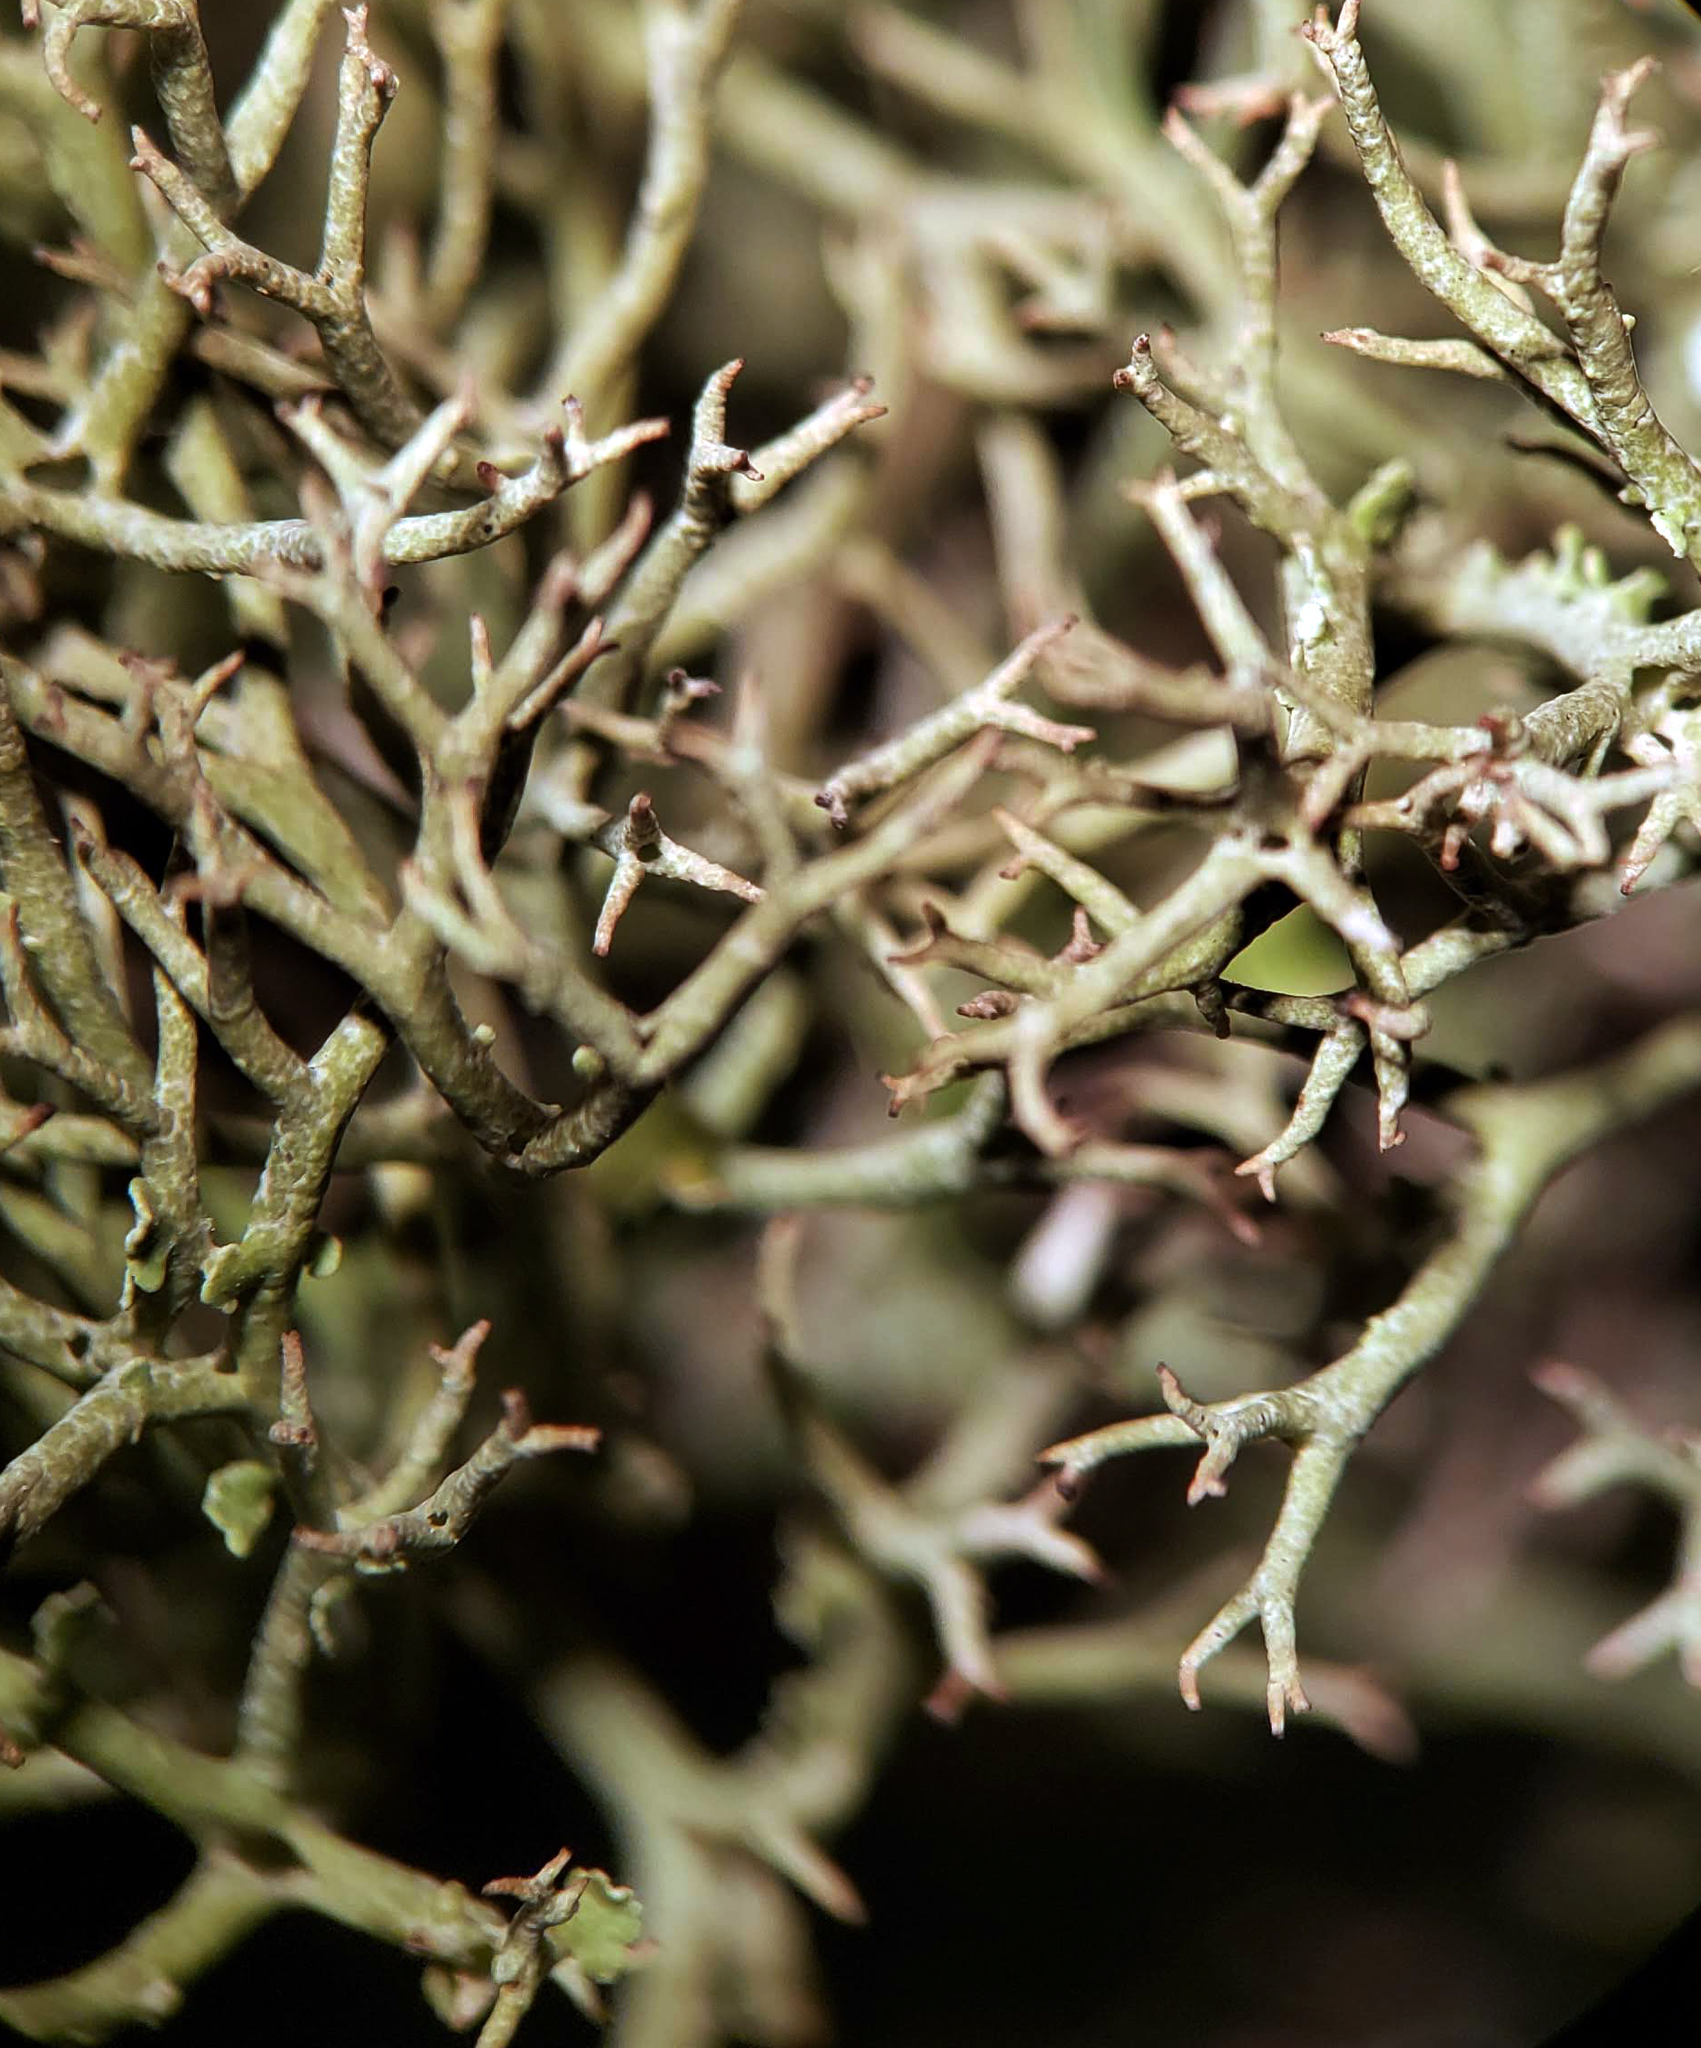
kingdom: Fungi
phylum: Ascomycota
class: Lecanoromycetes
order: Lecanorales
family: Cladoniaceae
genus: Cladonia
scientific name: Cladonia furcata
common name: Many-forked cladonia
